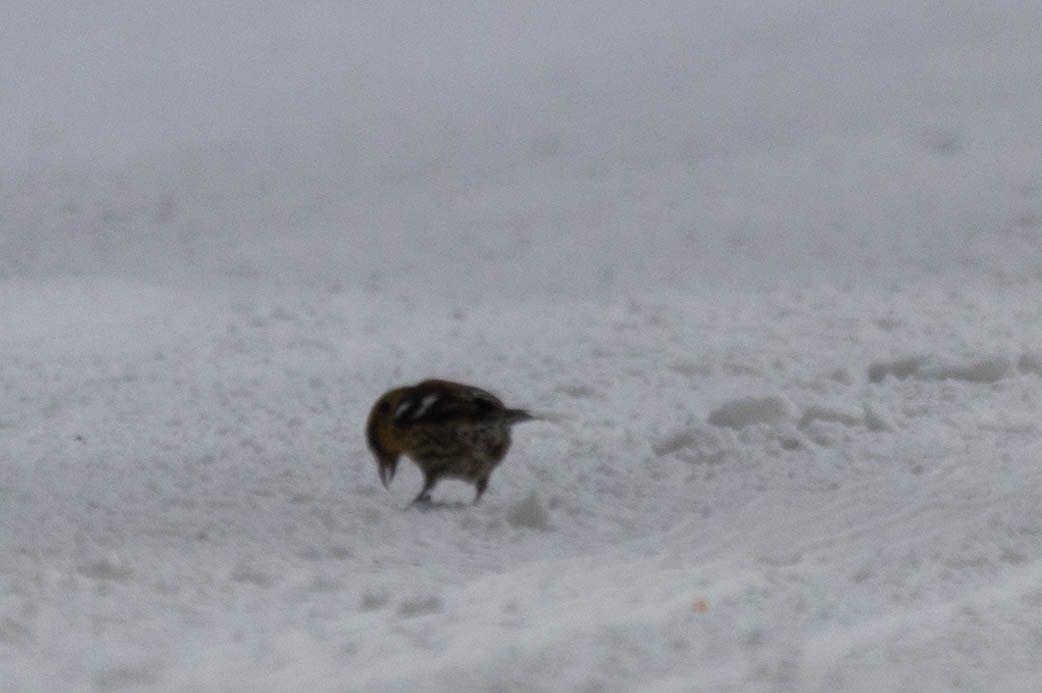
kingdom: Animalia
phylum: Chordata
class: Aves
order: Passeriformes
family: Fringillidae
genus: Loxia
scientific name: Loxia leucoptera
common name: Two-barred crossbill
